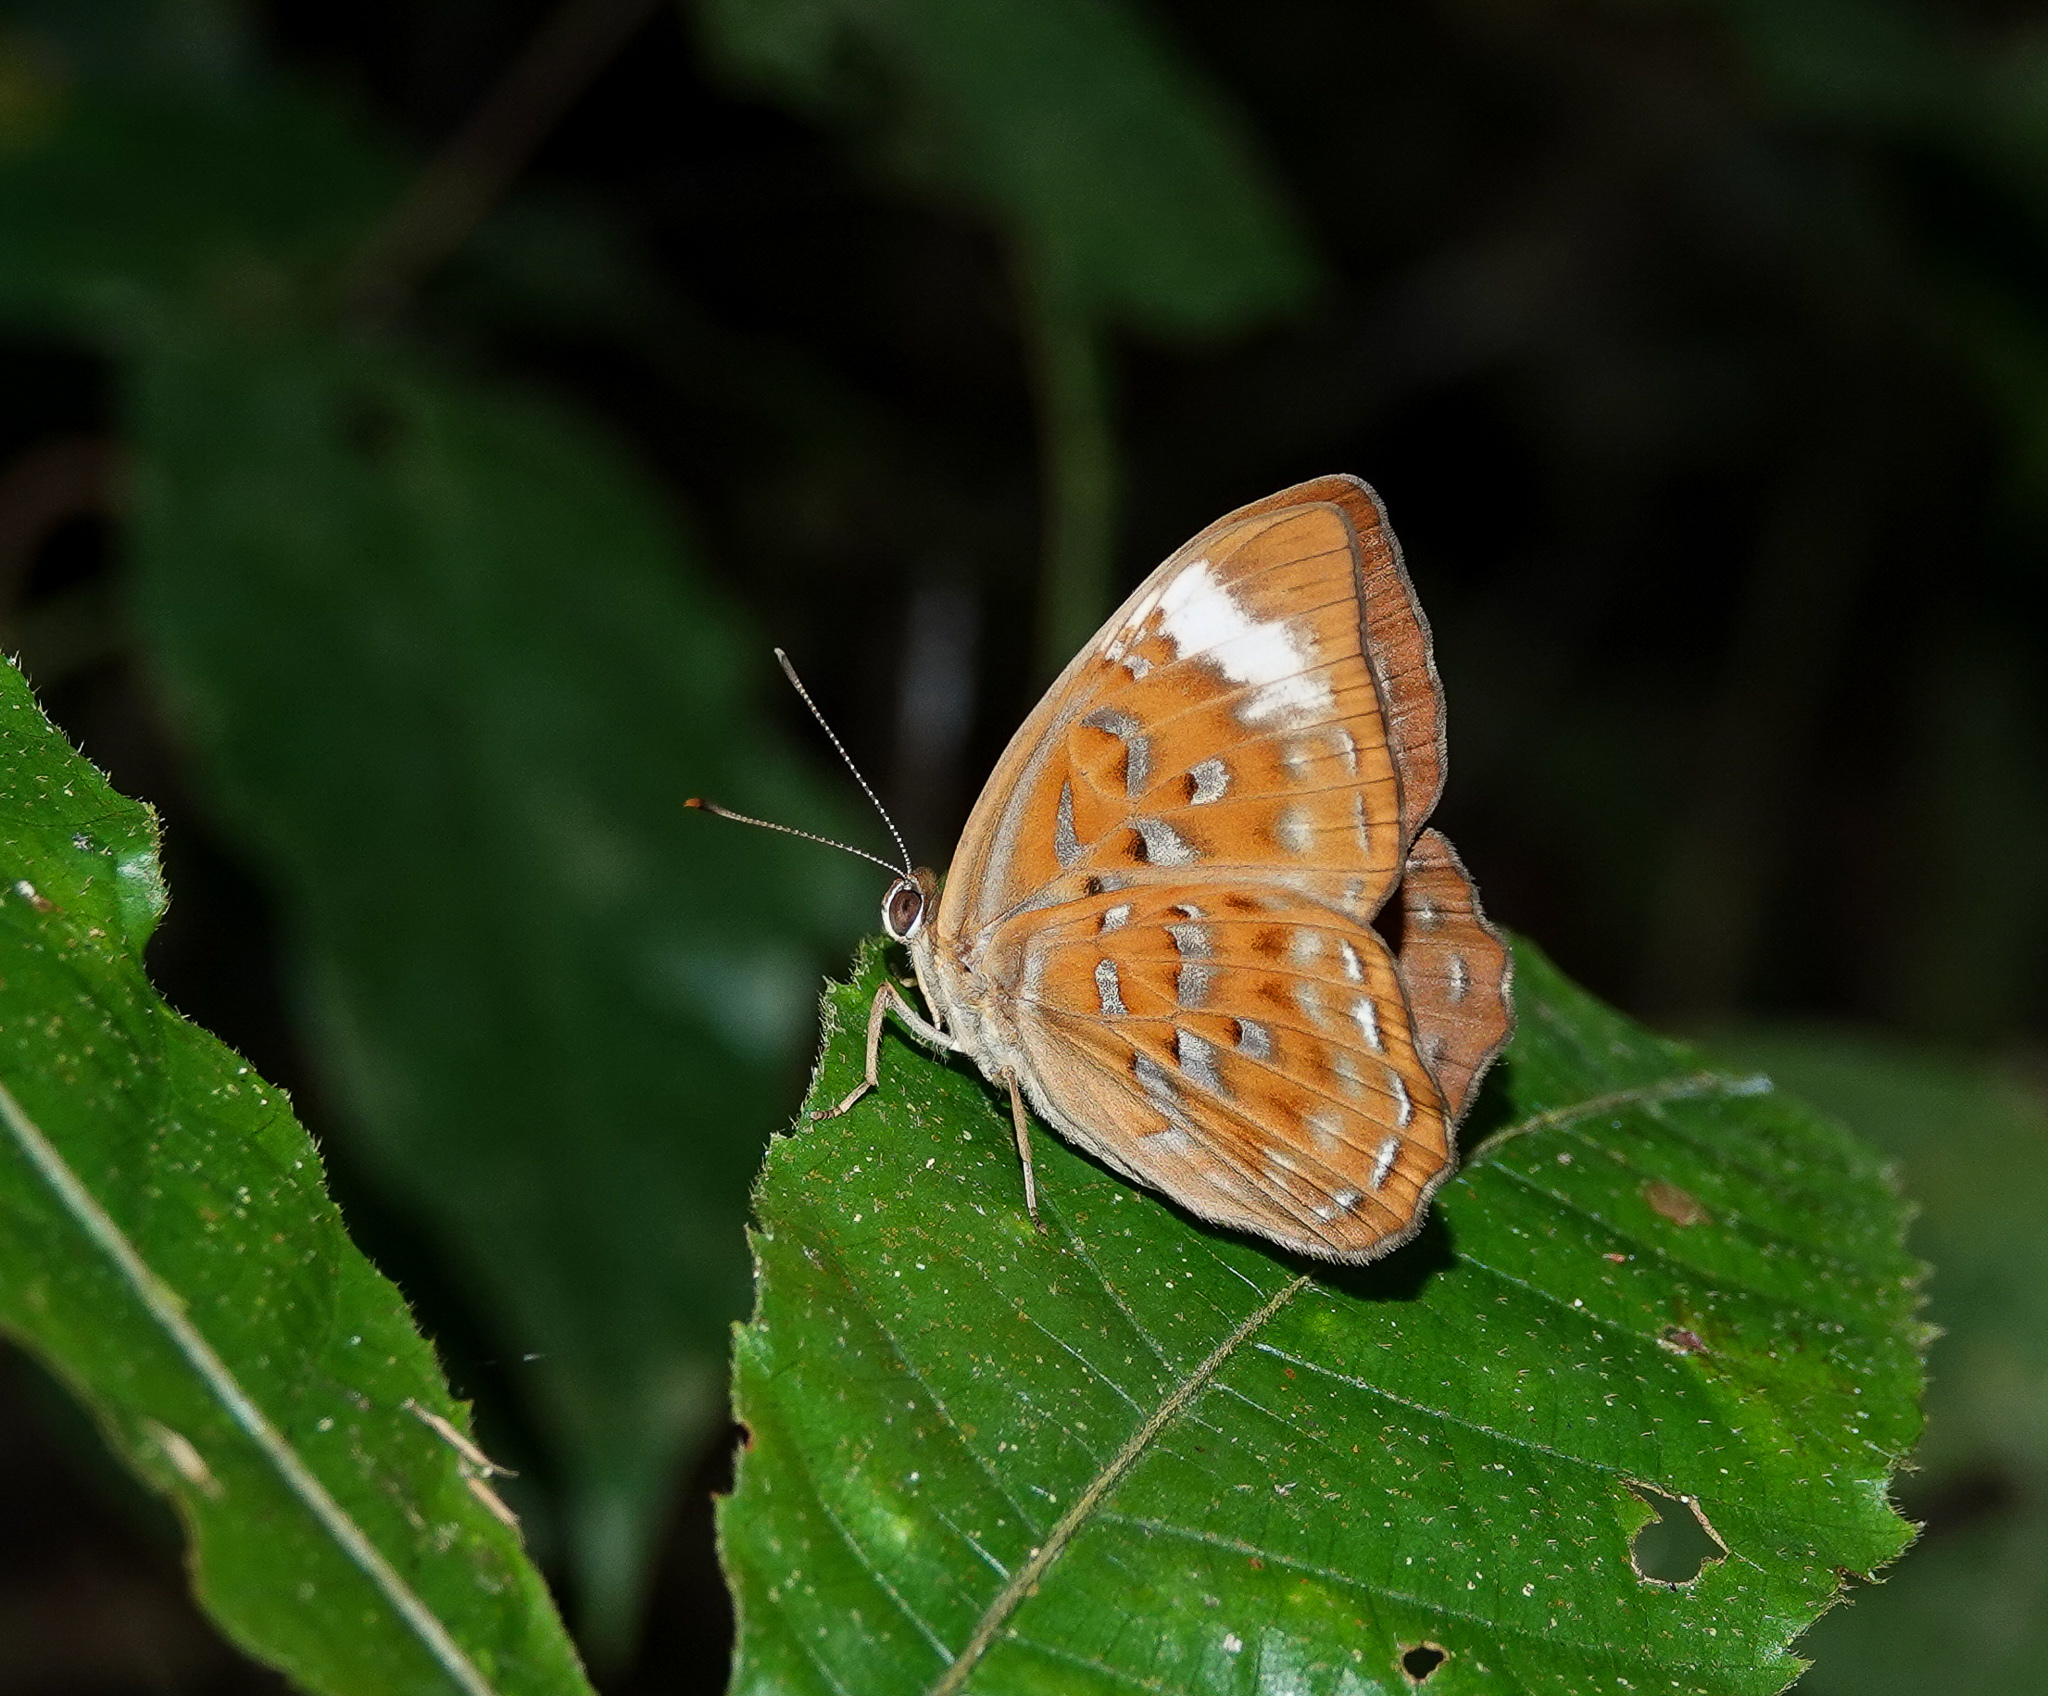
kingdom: Animalia
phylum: Arthropoda
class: Insecta
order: Lepidoptera
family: Erebidae
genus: Dysschema
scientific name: Dysschema
